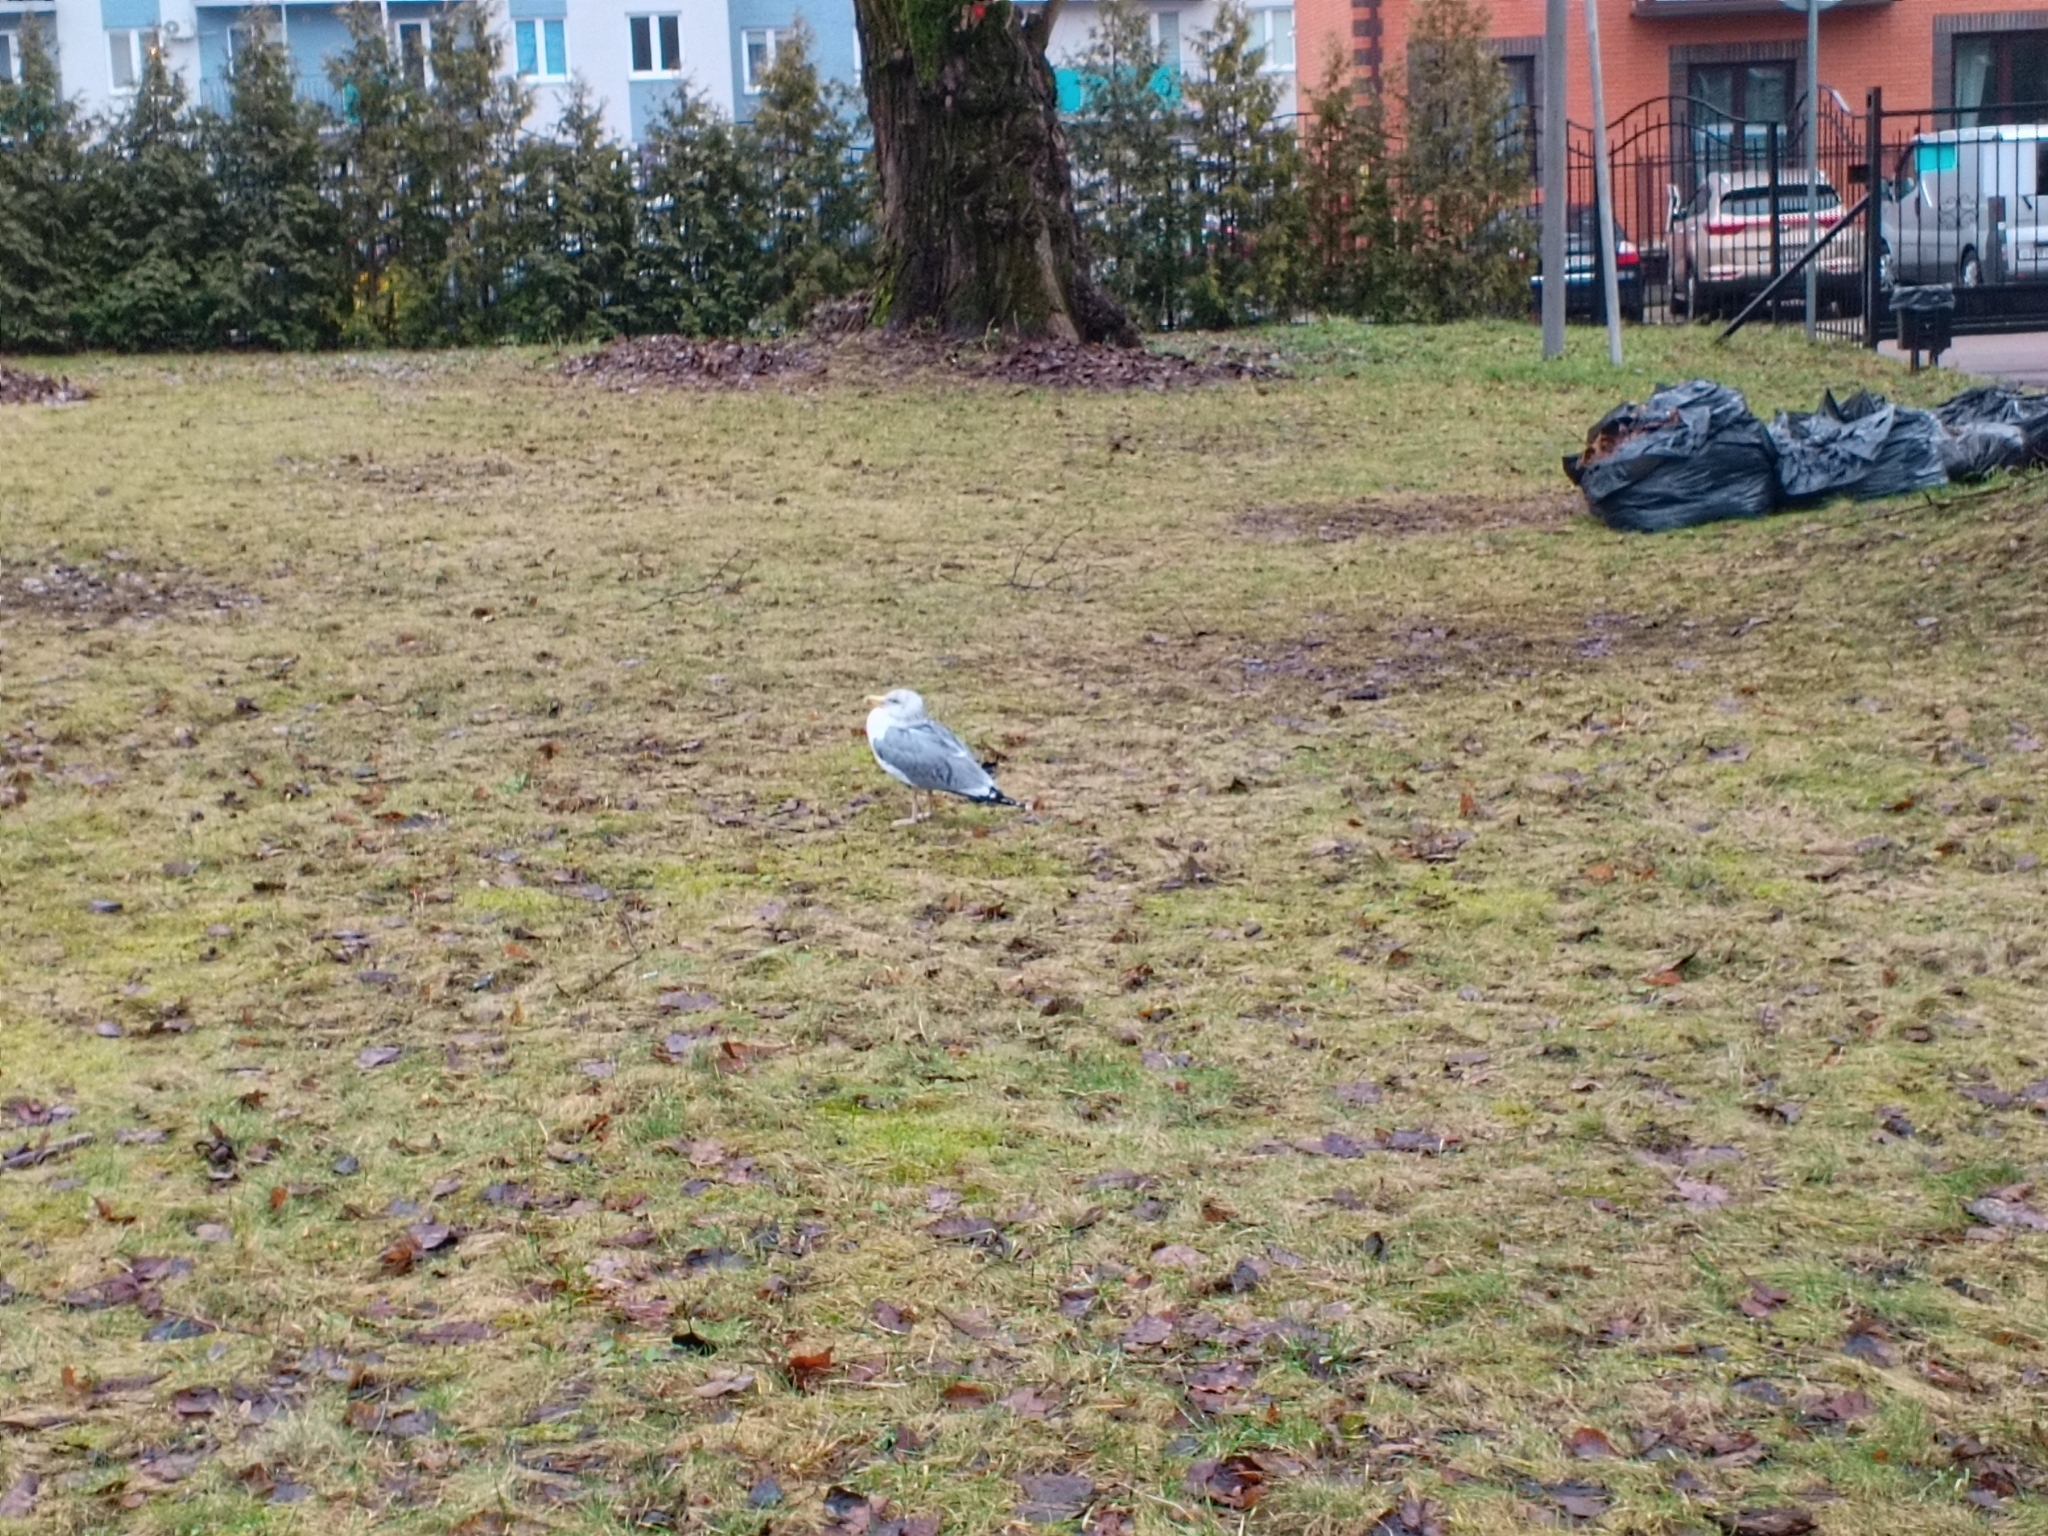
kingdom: Animalia
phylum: Chordata
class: Aves
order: Charadriiformes
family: Laridae
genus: Larus
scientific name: Larus argentatus
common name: Herring gull
